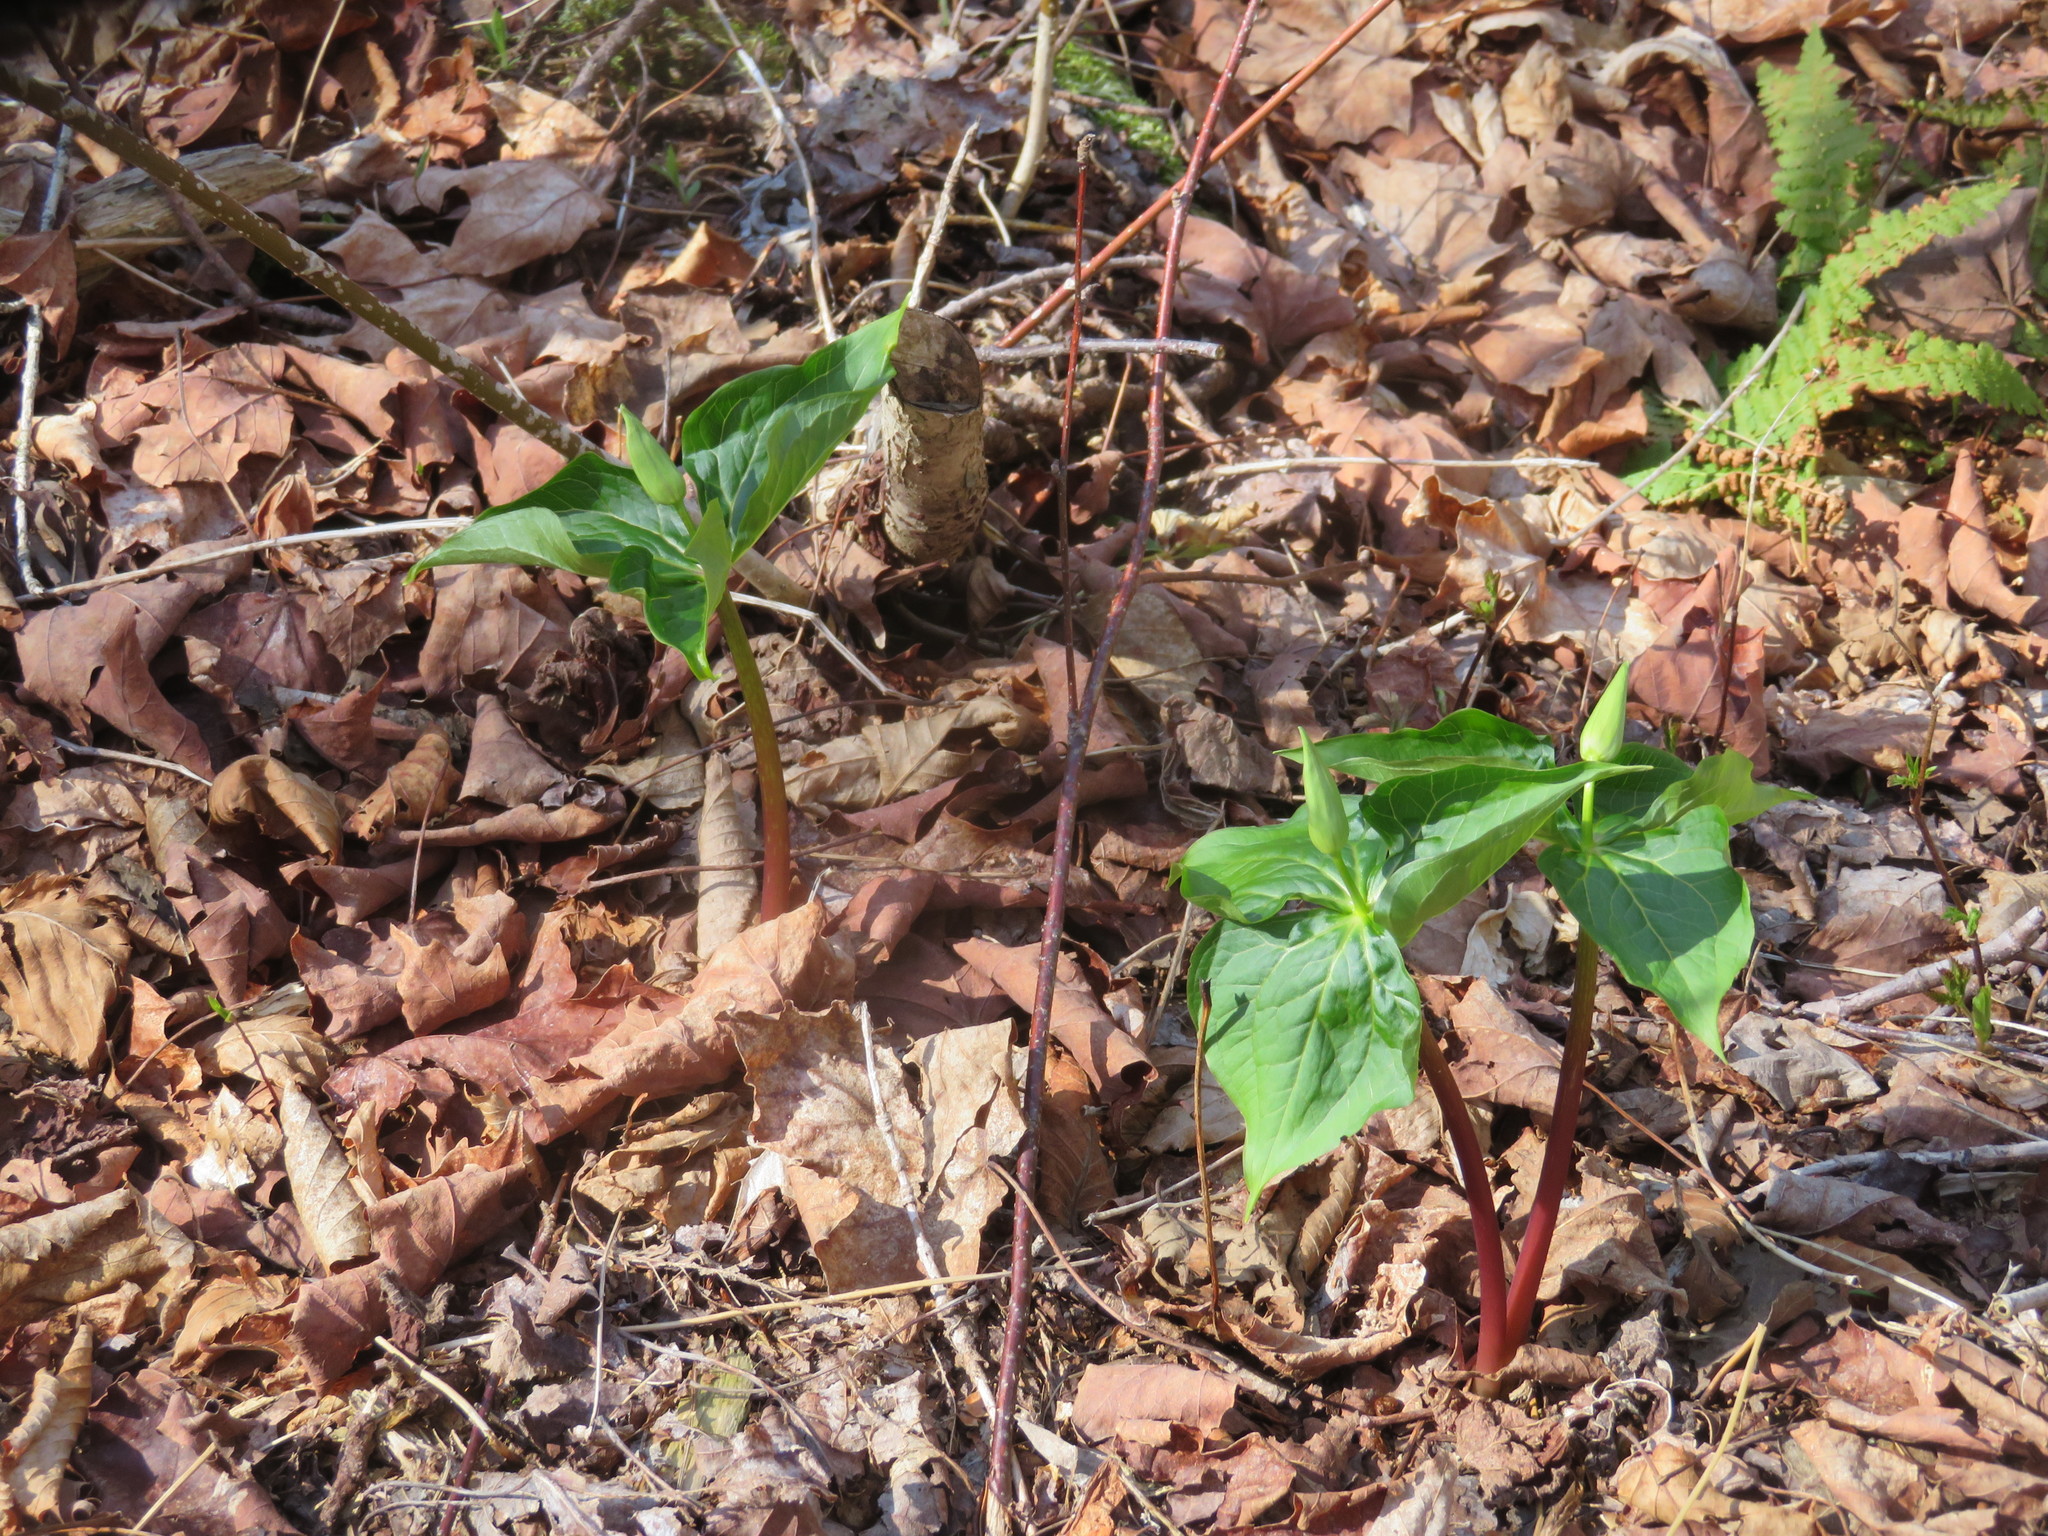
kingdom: Plantae
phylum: Tracheophyta
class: Liliopsida
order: Liliales
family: Melanthiaceae
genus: Trillium
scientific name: Trillium erectum
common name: Purple trillium
